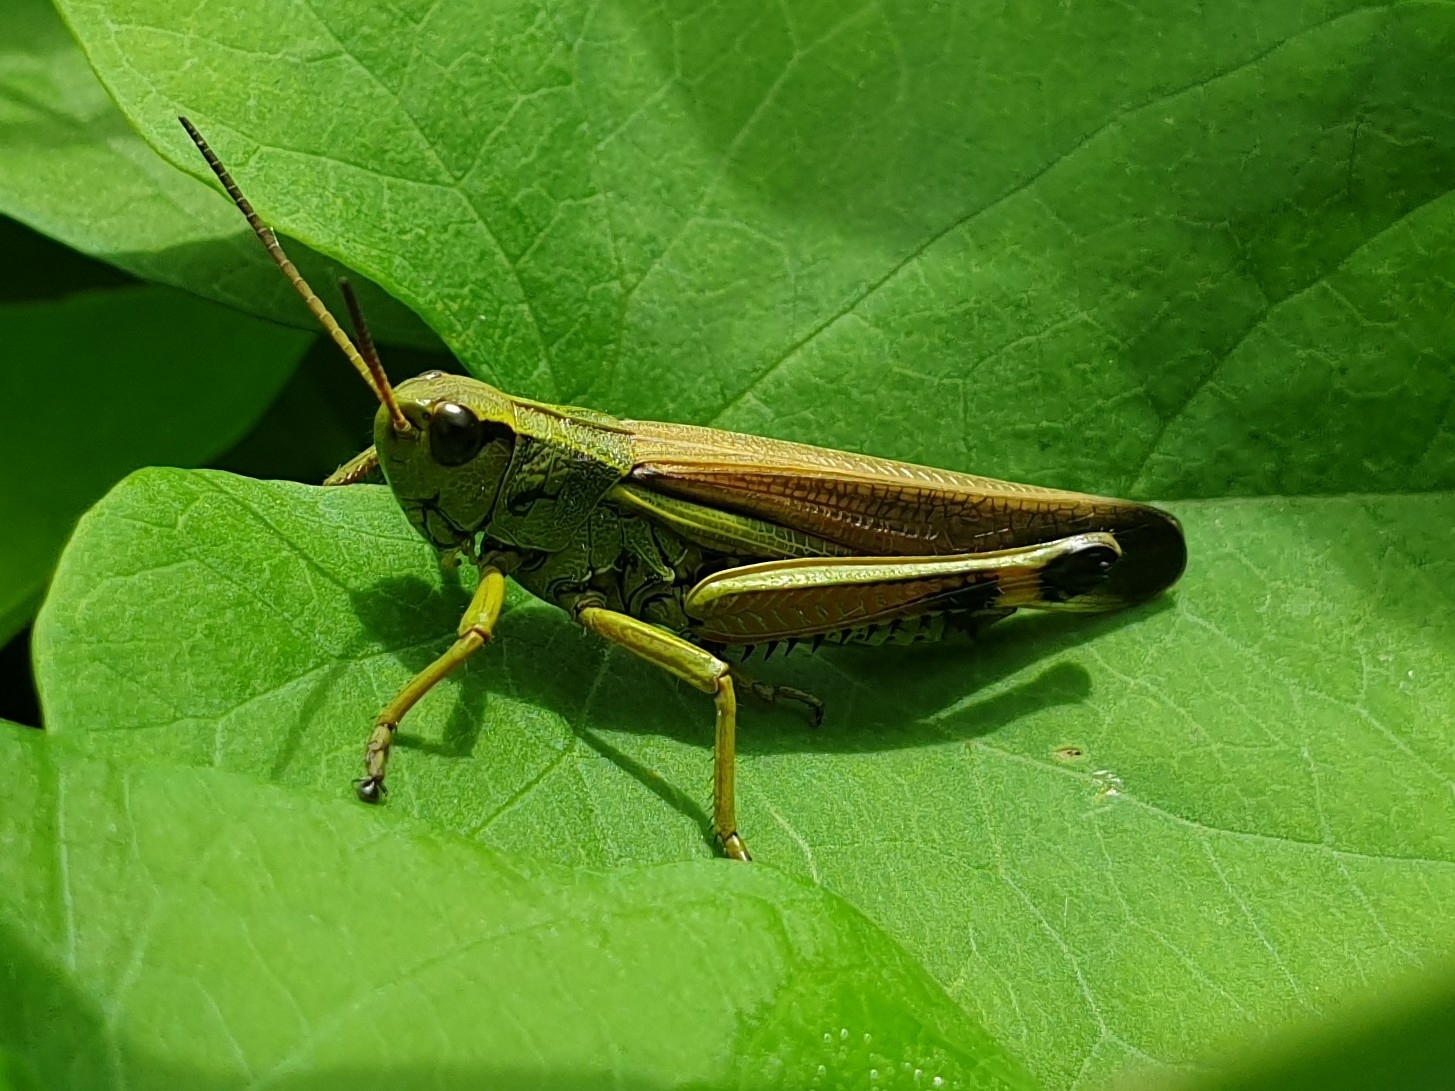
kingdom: Animalia
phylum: Arthropoda
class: Insecta
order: Orthoptera
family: Acrididae
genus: Stethophyma
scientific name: Stethophyma grossum
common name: Large marsh grasshopper
